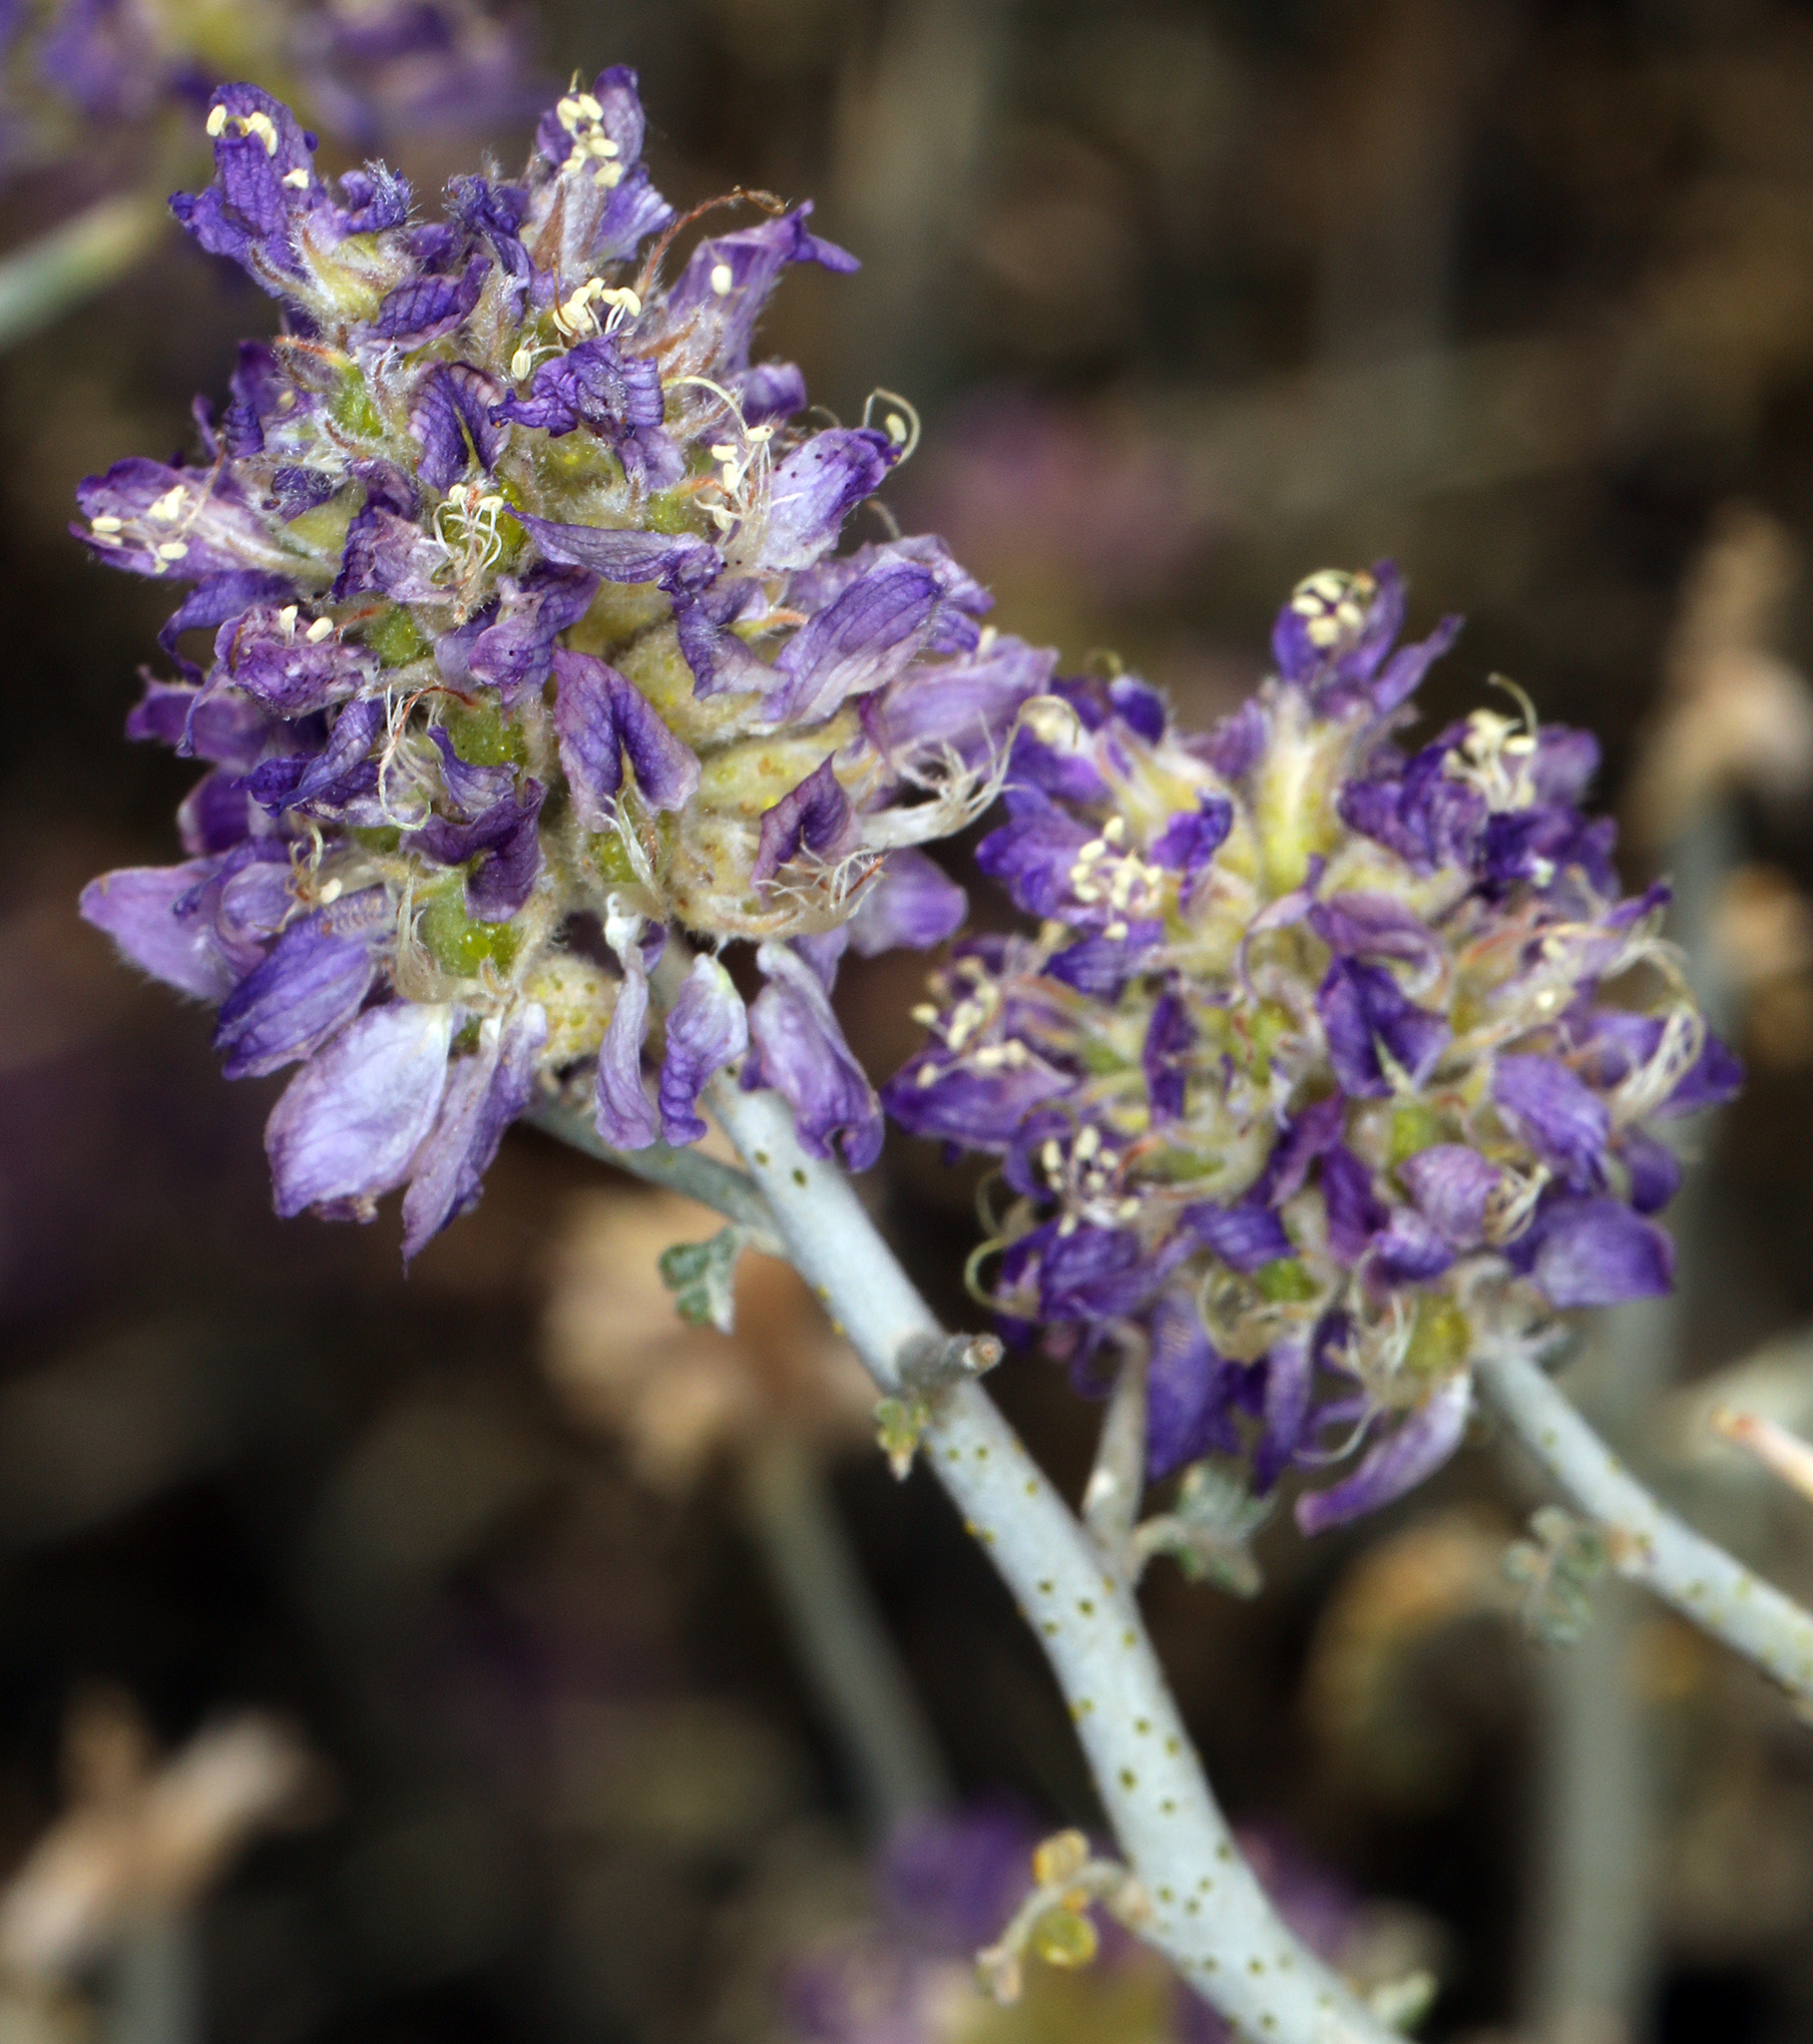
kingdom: Plantae
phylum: Tracheophyta
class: Magnoliopsida
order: Fabales
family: Fabaceae
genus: Psorothamnus
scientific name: Psorothamnus polydenius
